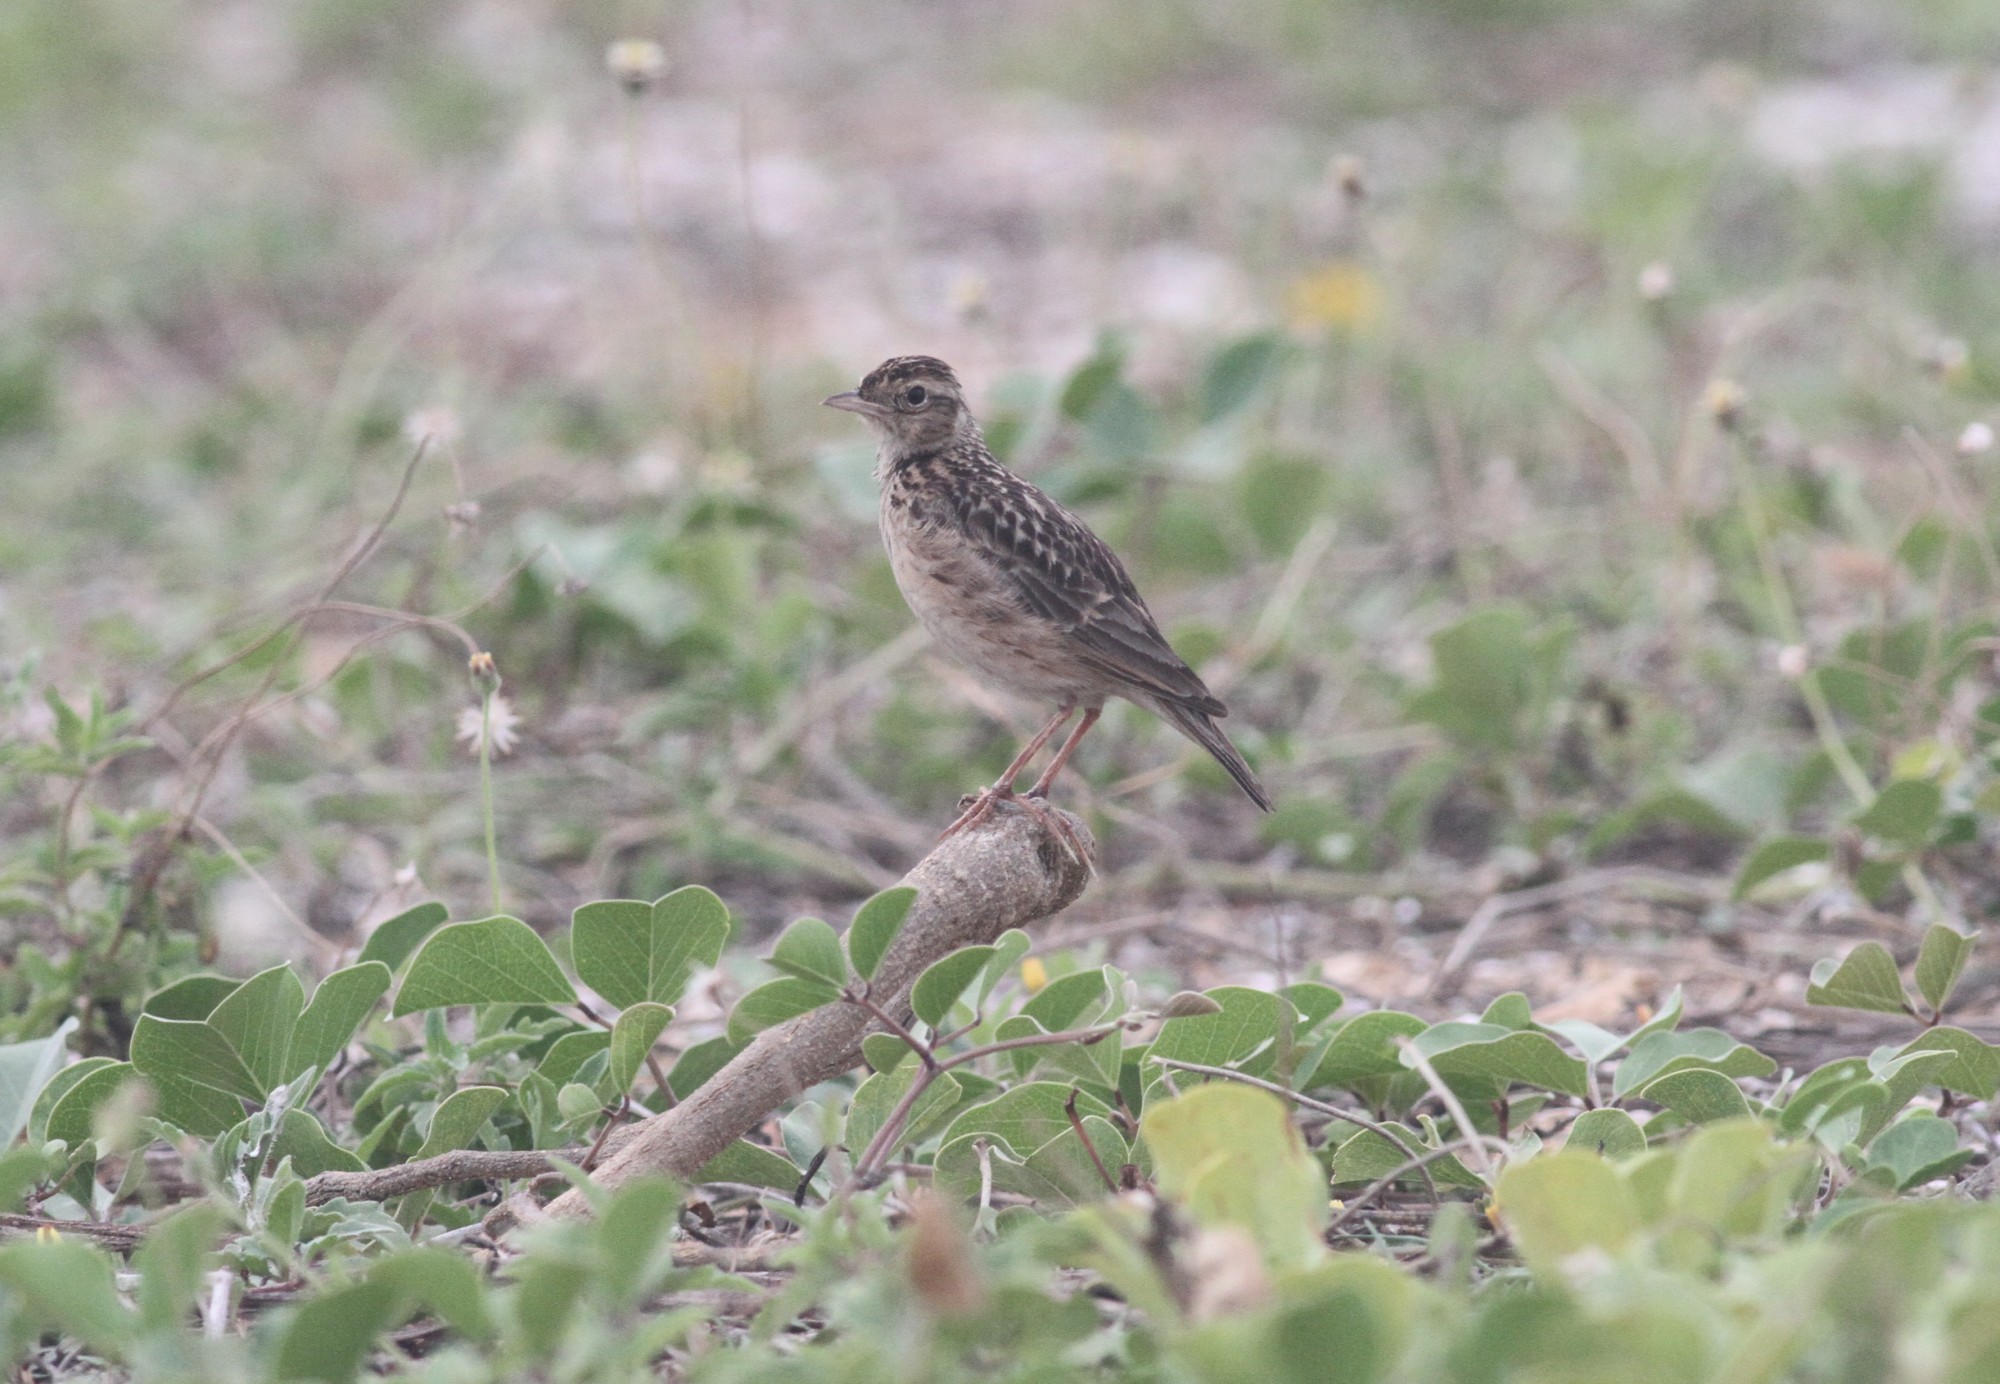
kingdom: Animalia
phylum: Chordata
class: Aves
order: Passeriformes
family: Alaudidae
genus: Alauda
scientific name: Alauda gulgula
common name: Oriental skylark
